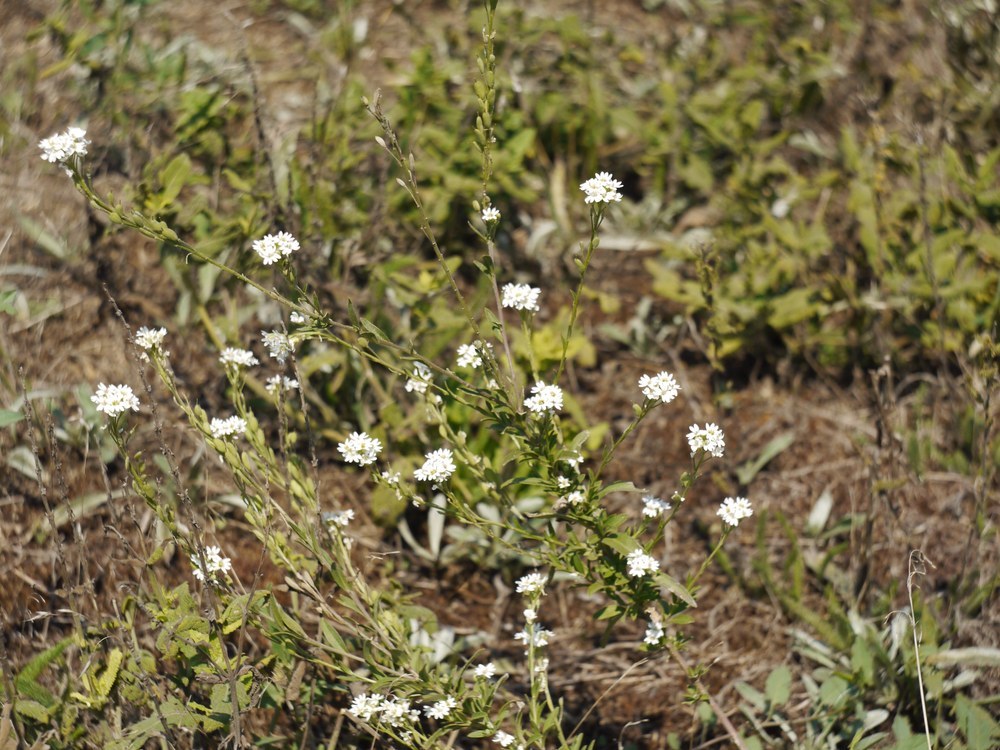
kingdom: Plantae
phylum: Tracheophyta
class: Magnoliopsida
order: Brassicales
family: Brassicaceae
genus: Berteroa
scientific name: Berteroa incana
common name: Hoary alison
